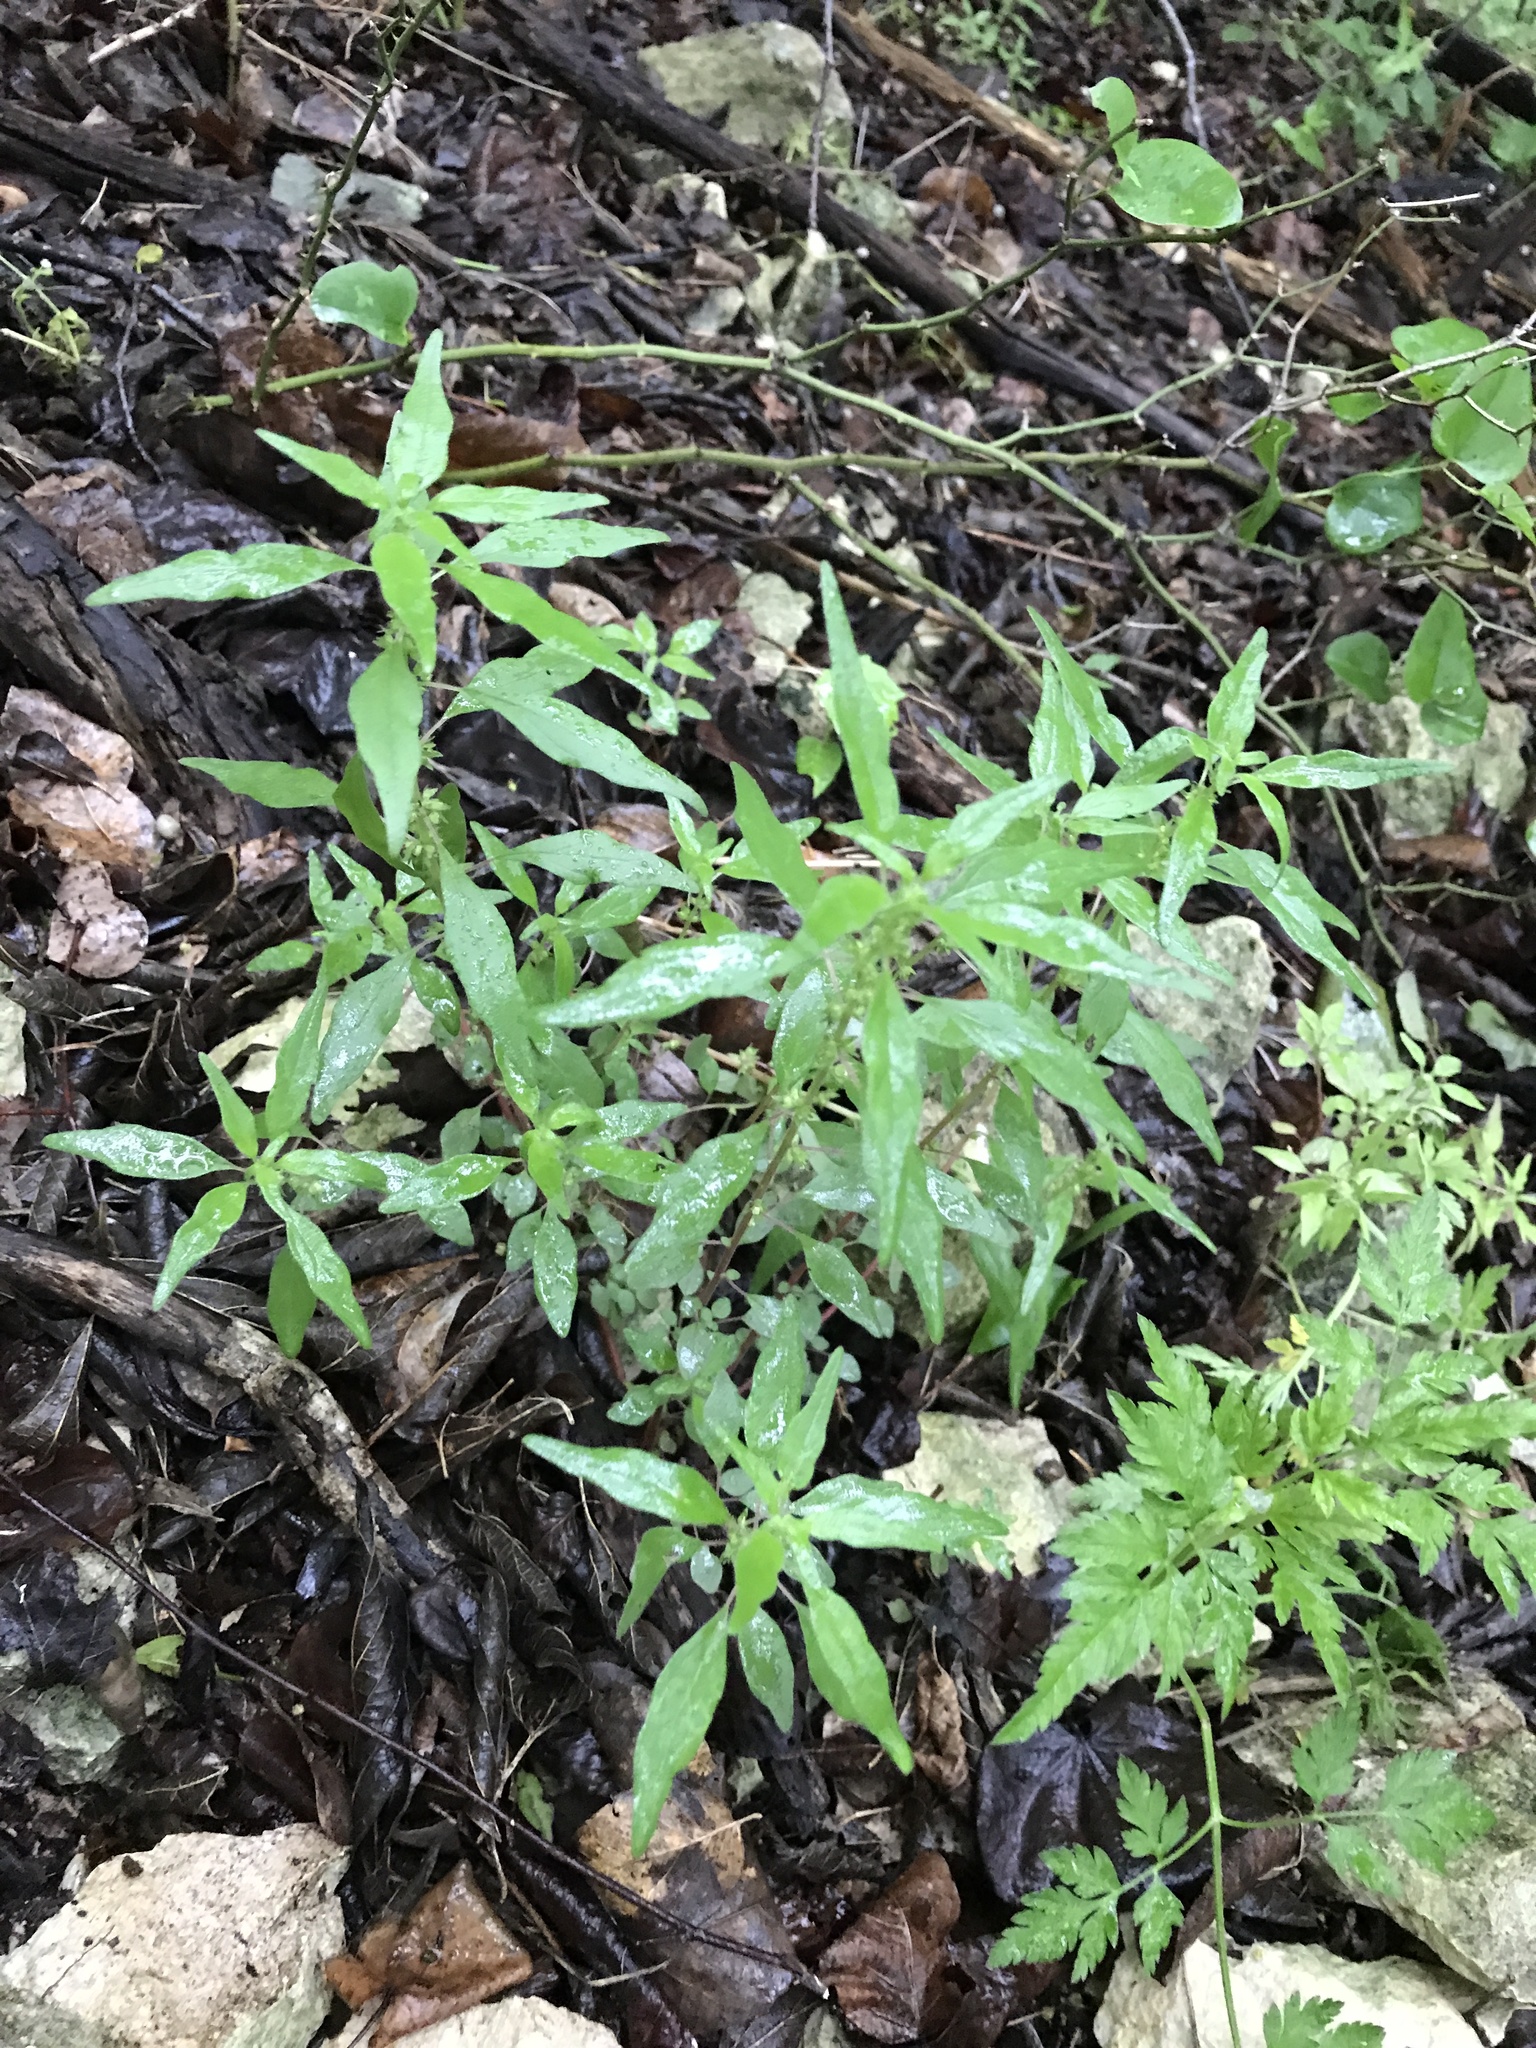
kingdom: Plantae
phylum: Tracheophyta
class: Magnoliopsida
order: Rosales
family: Urticaceae
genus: Parietaria
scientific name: Parietaria pensylvanica
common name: Pennsylvania pellitory
